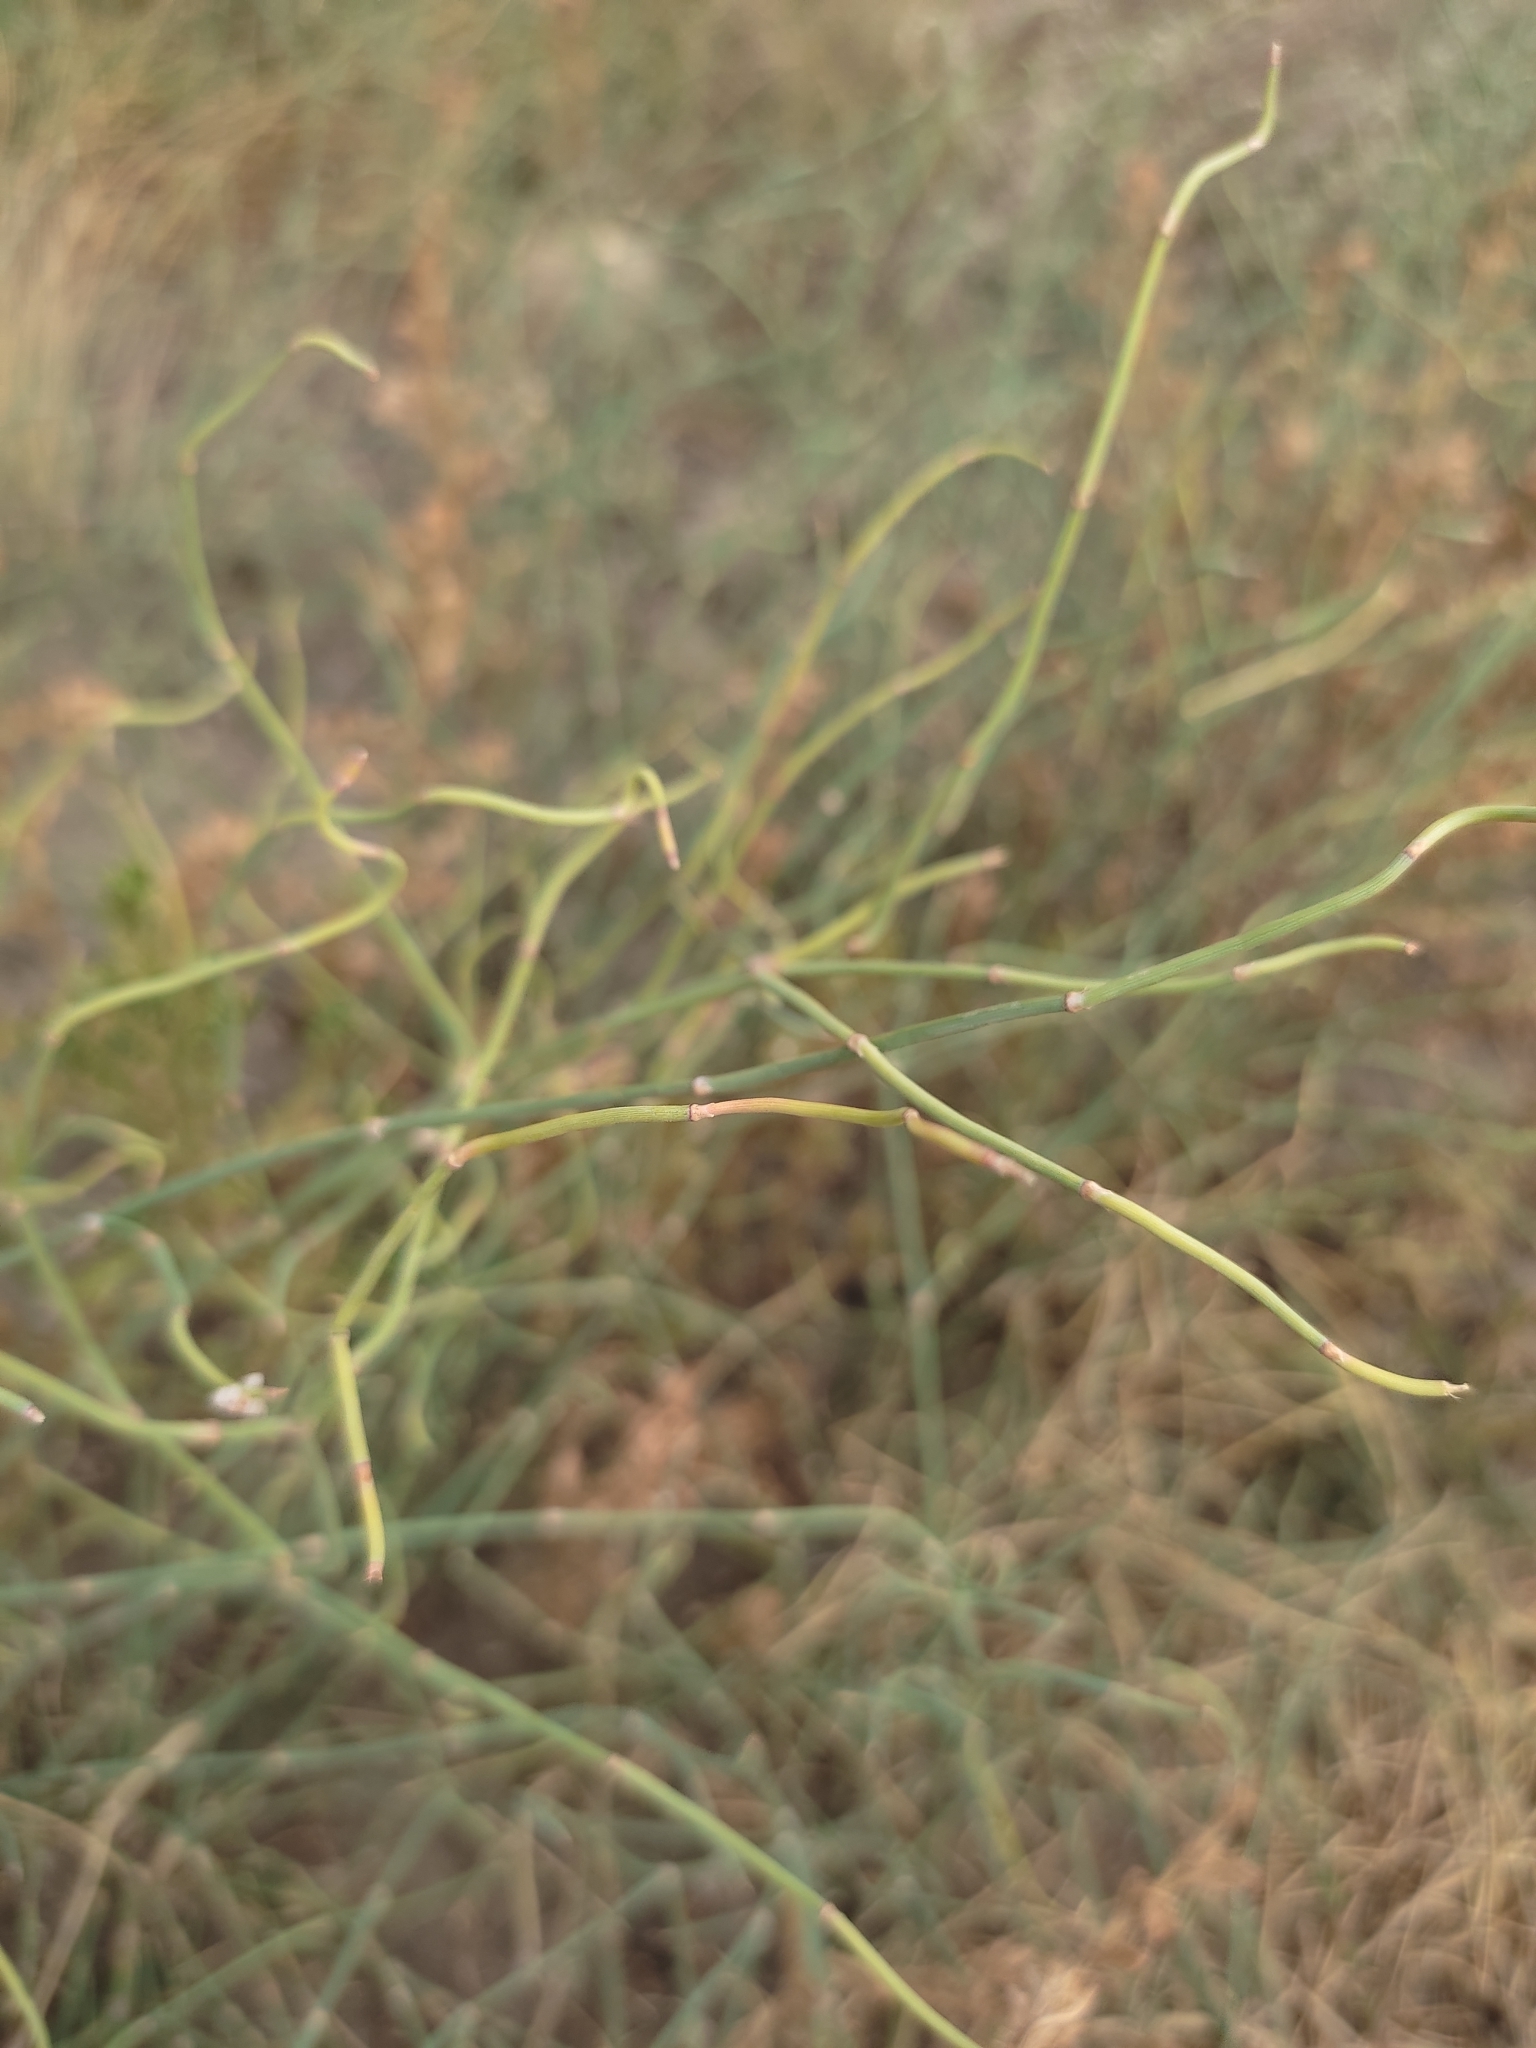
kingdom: Plantae
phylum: Tracheophyta
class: Gnetopsida
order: Ephedrales
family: Ephedraceae
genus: Ephedra
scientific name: Ephedra distachya
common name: Sea grape
